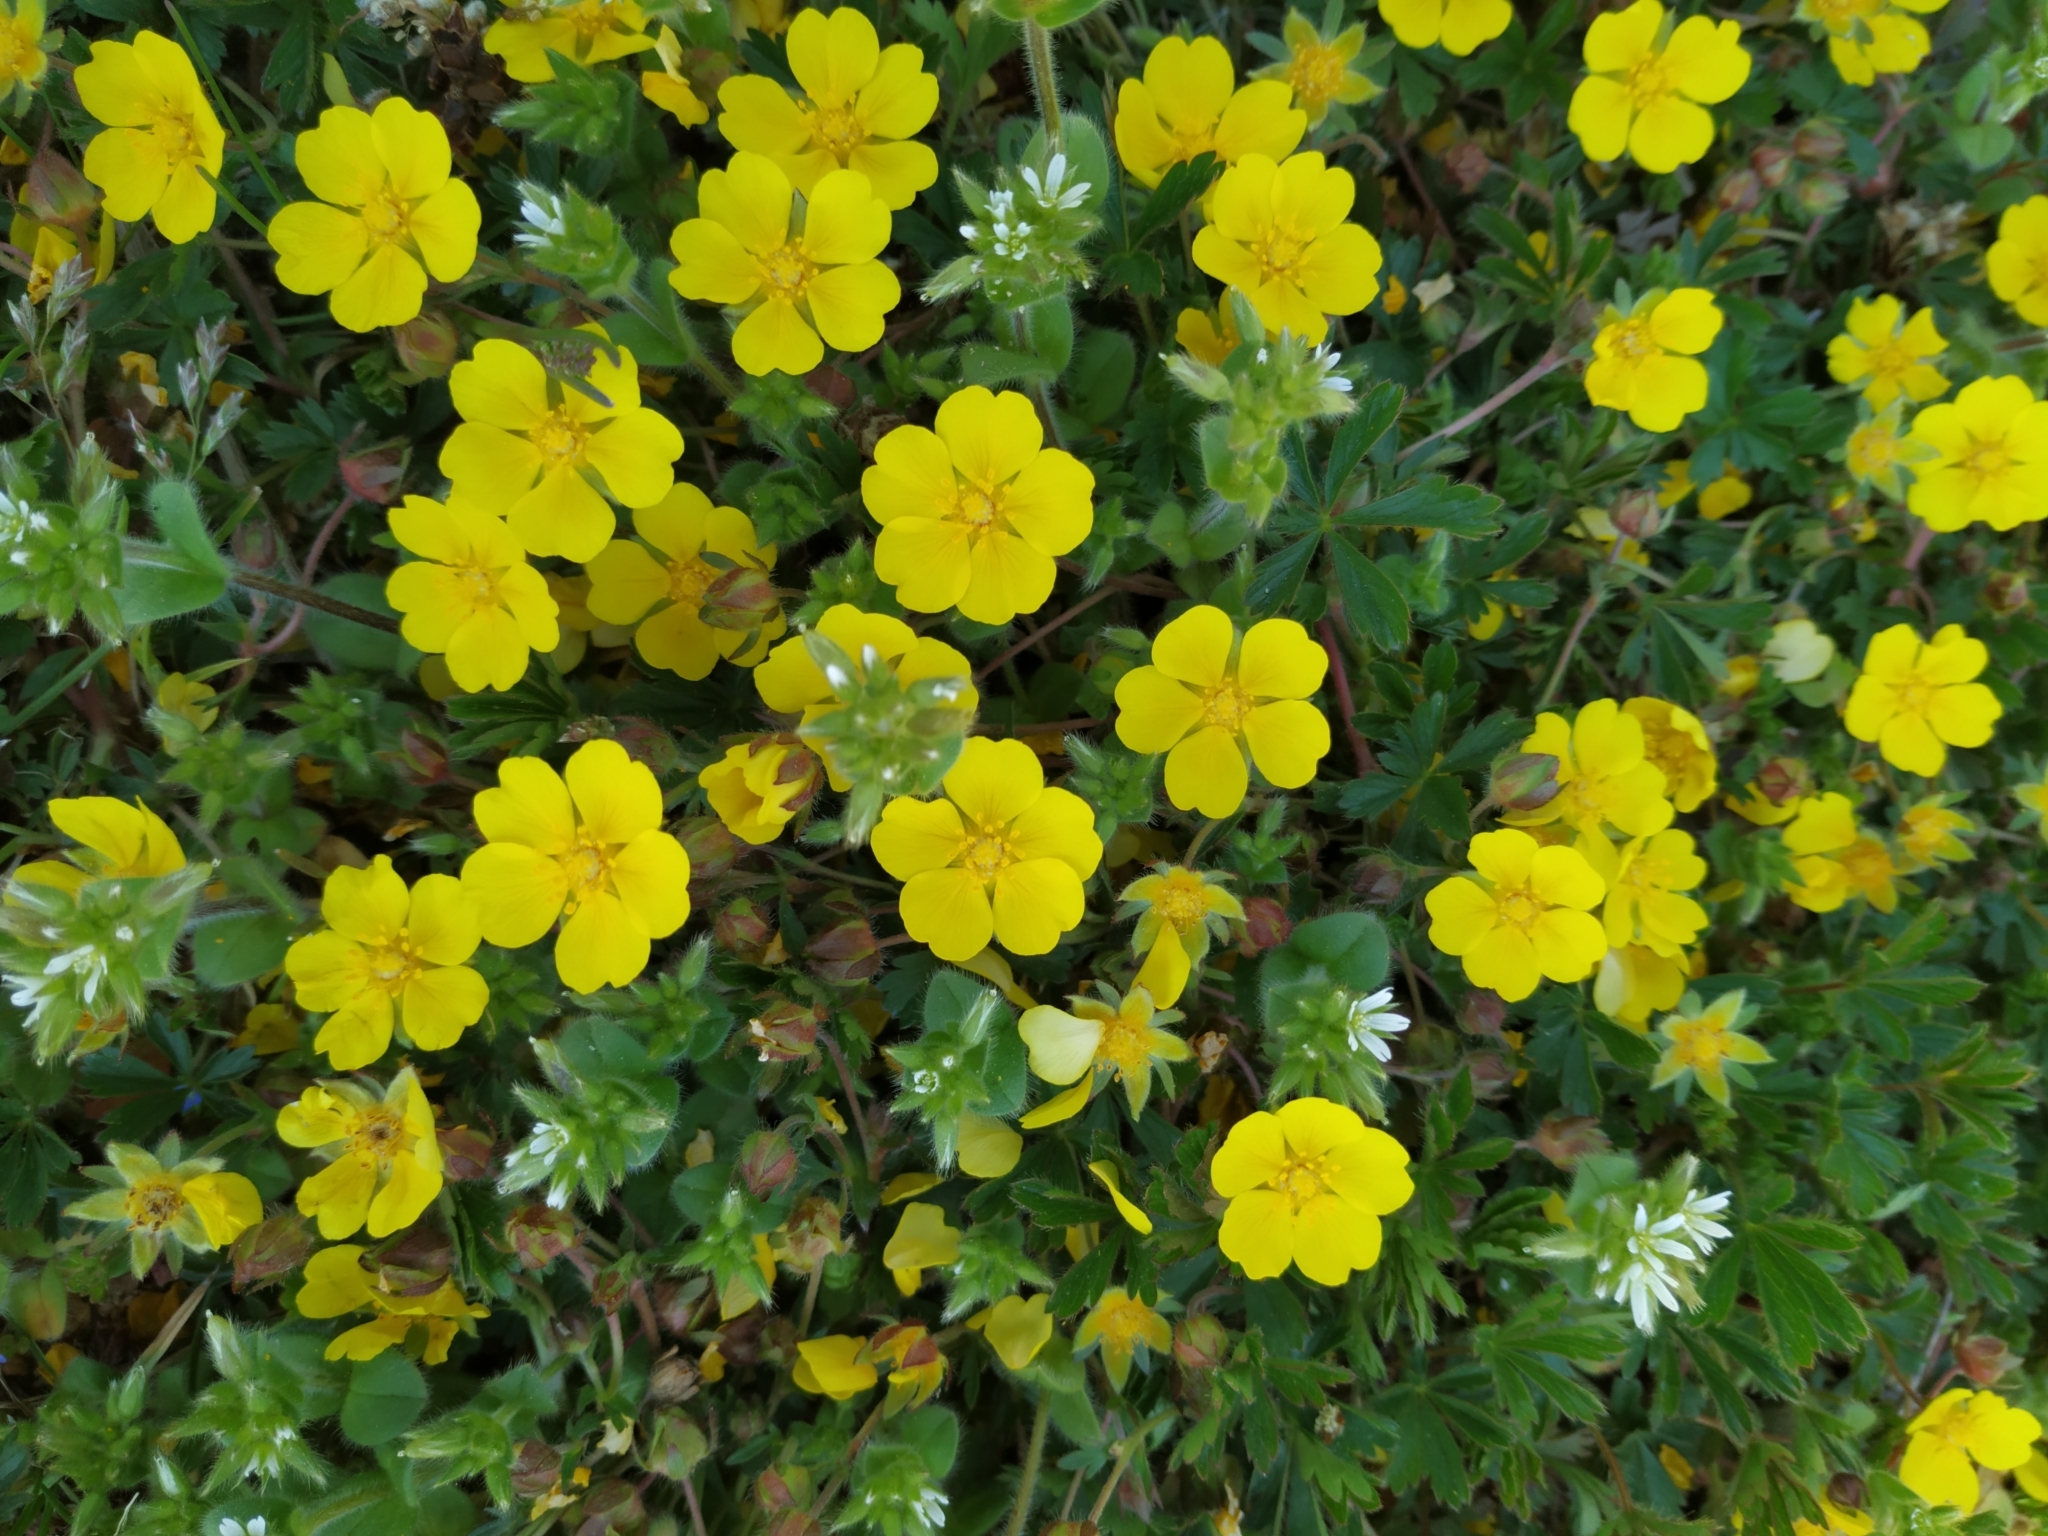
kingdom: Plantae
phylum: Tracheophyta
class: Magnoliopsida
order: Rosales
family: Rosaceae
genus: Potentilla
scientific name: Potentilla verna
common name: Spring cinquefoil
